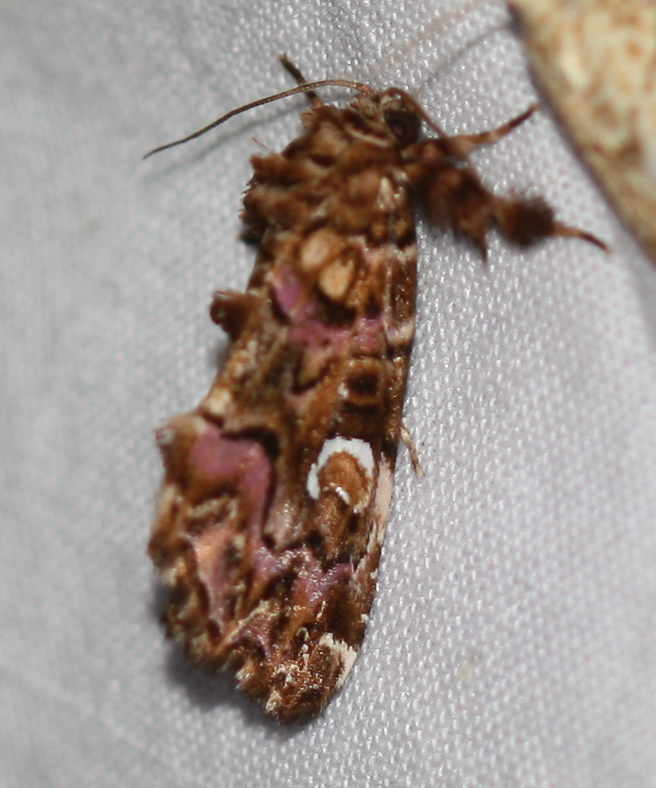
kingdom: Animalia
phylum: Arthropoda
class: Insecta
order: Lepidoptera
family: Noctuidae
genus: Callopistria
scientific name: Callopistria mollissima
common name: Pink-shaded fern moth
